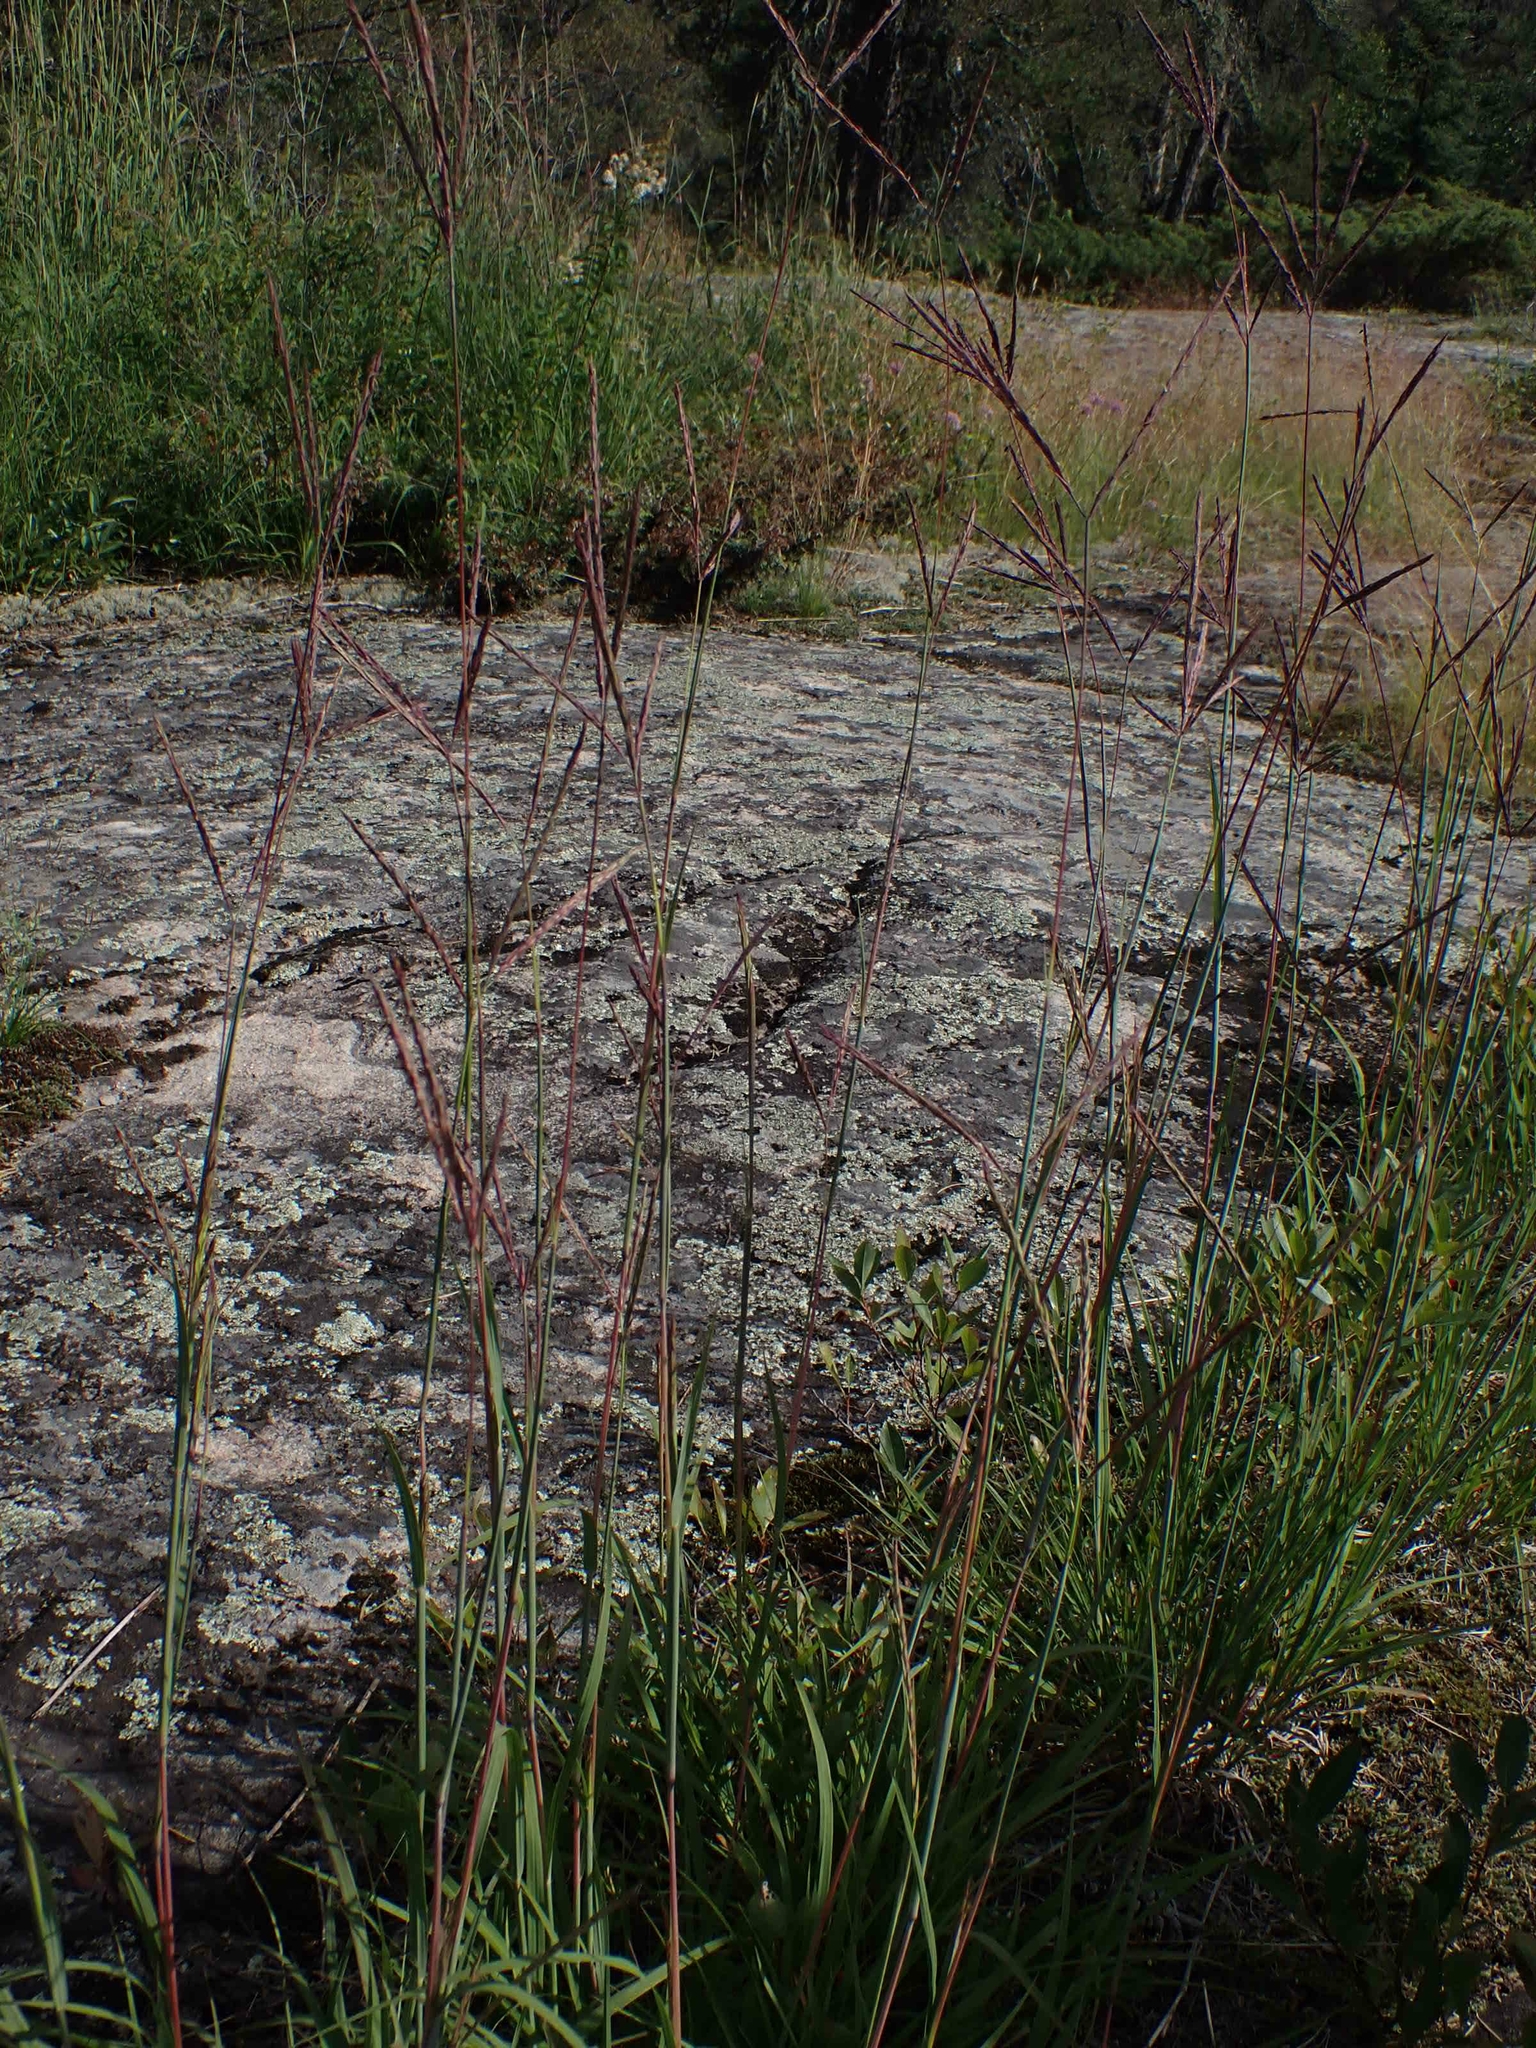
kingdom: Plantae
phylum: Tracheophyta
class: Liliopsida
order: Poales
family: Poaceae
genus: Andropogon
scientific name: Andropogon gerardi
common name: Big bluestem
